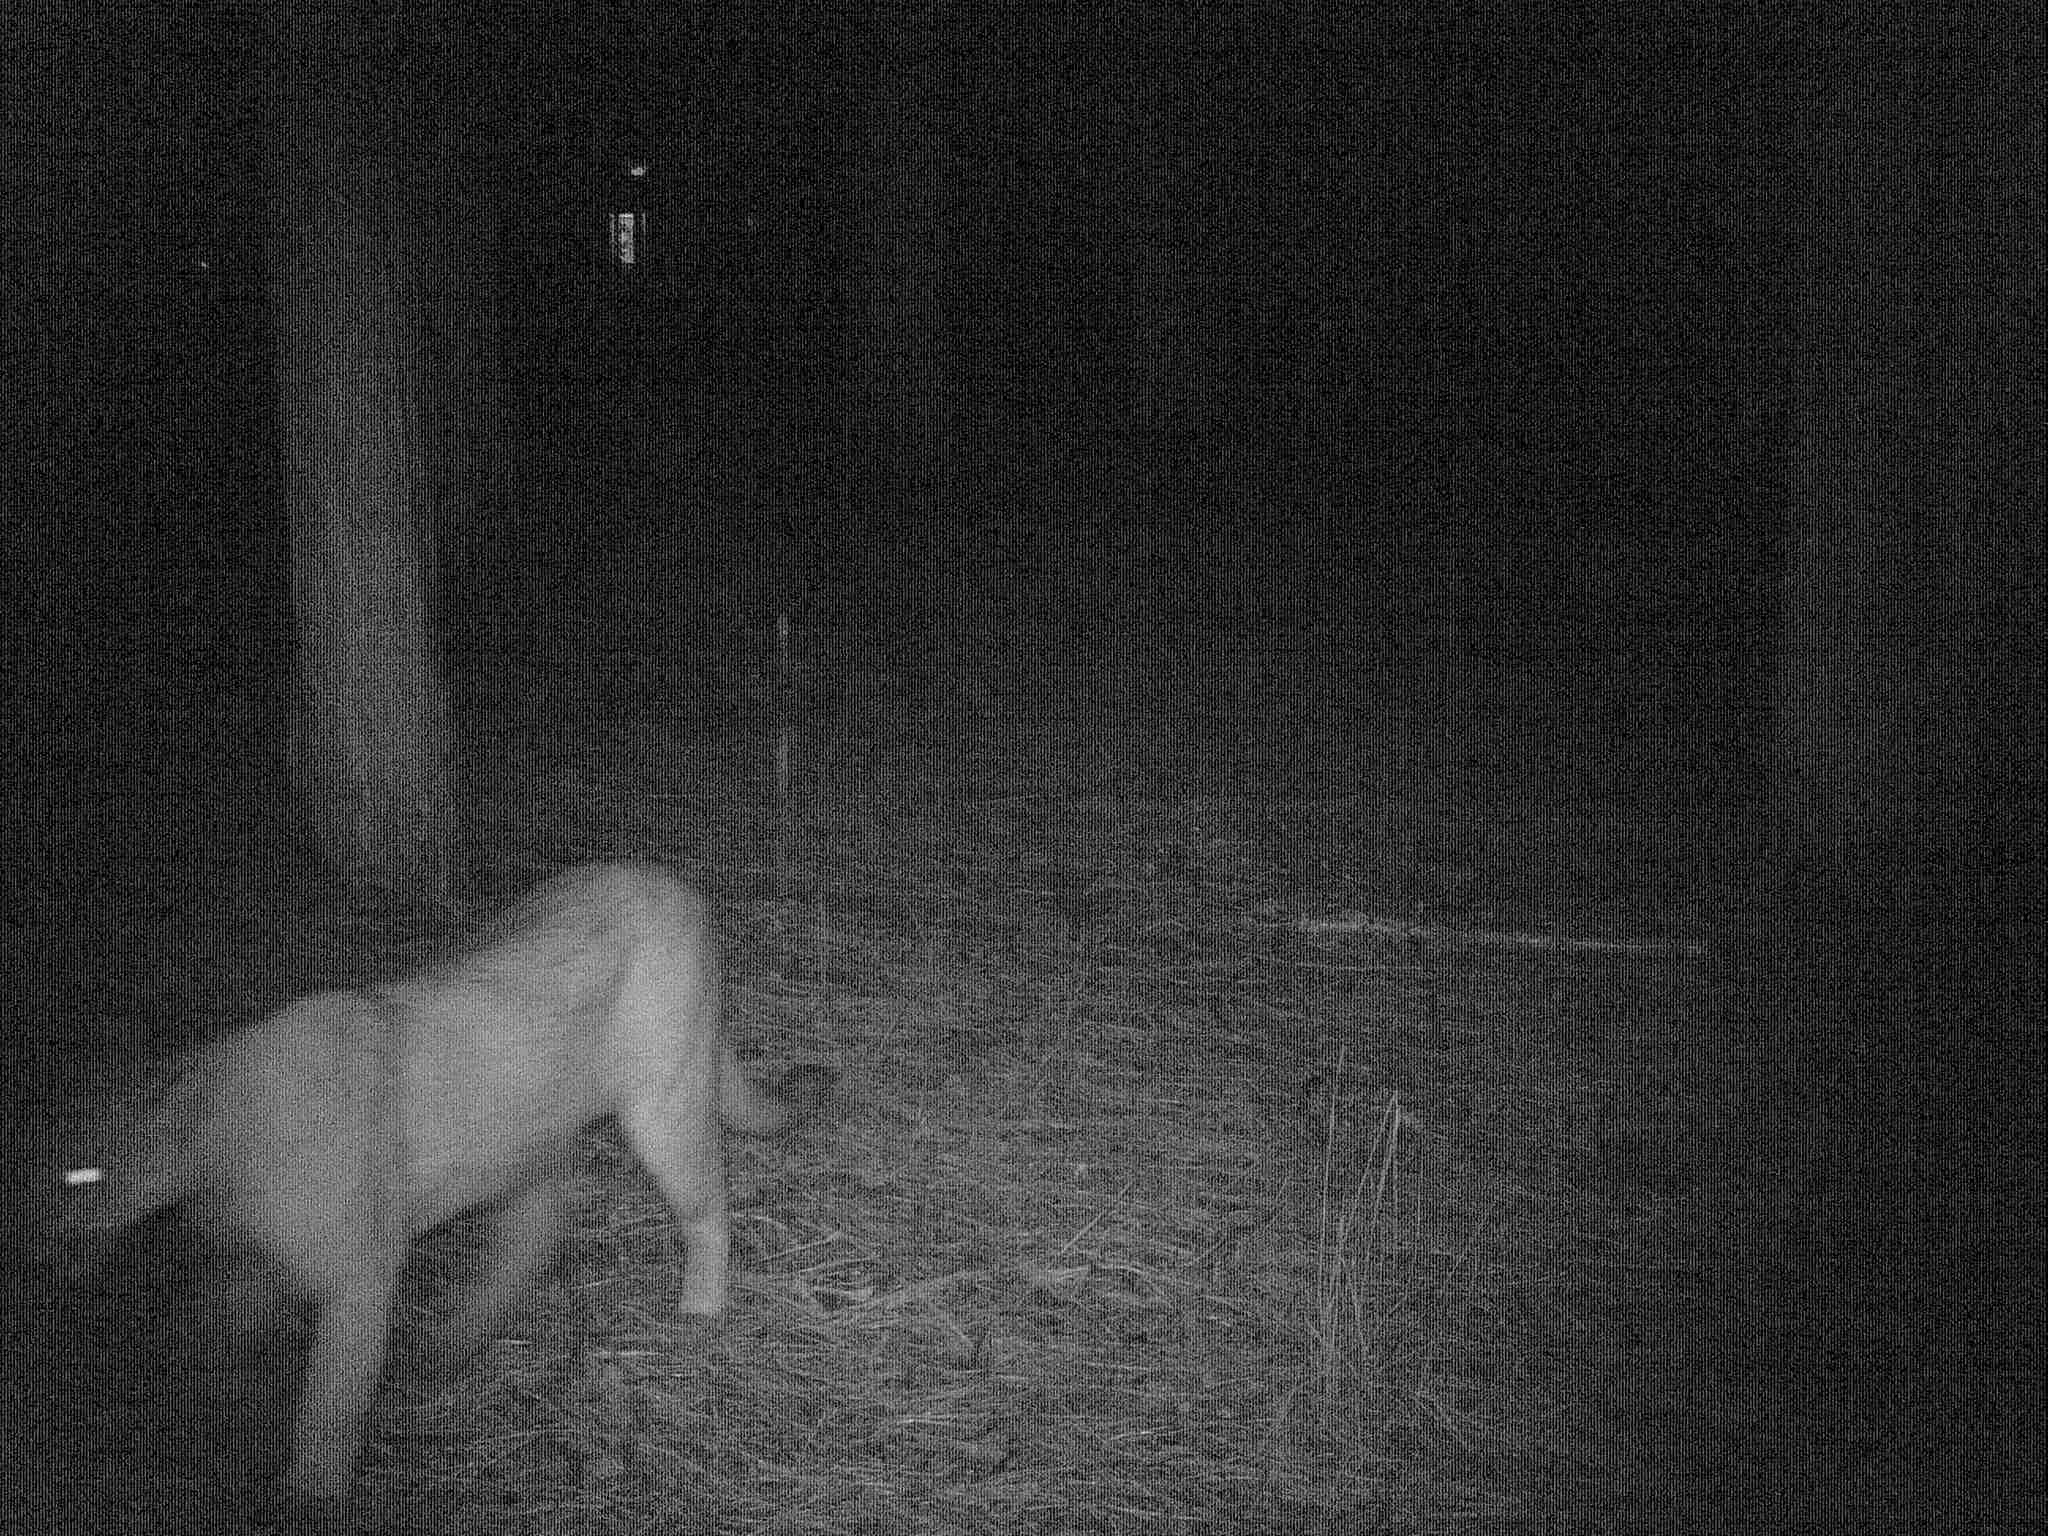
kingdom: Animalia
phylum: Chordata
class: Mammalia
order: Carnivora
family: Felidae
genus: Puma
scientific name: Puma concolor
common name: Puma
